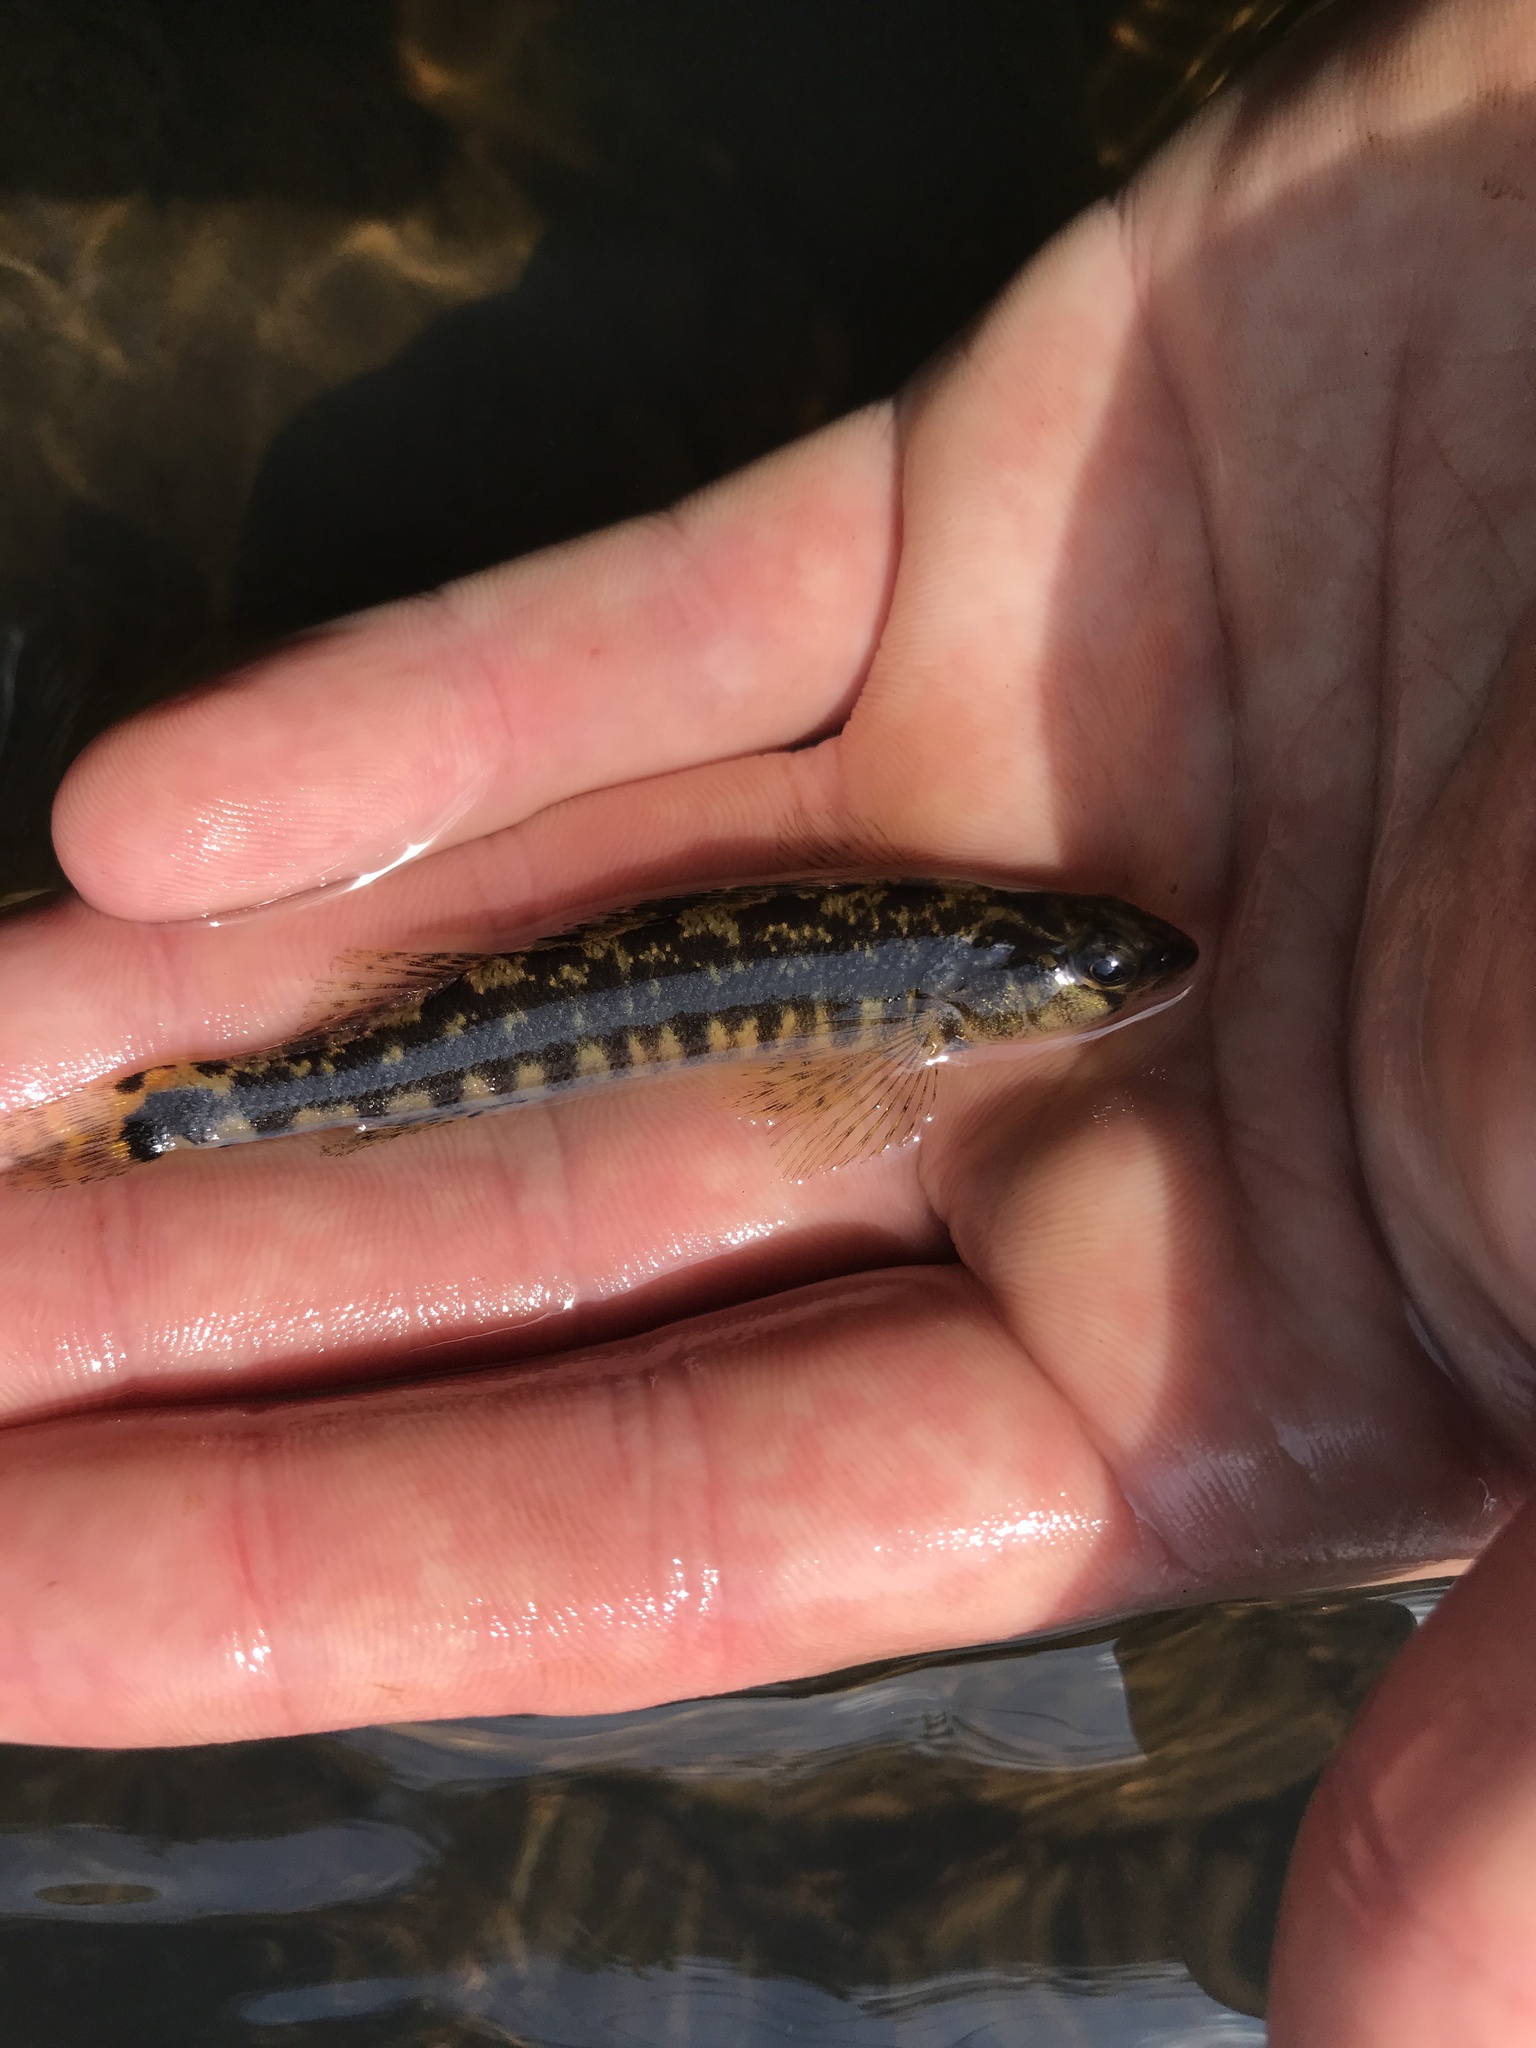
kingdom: Animalia
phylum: Chordata
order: Perciformes
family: Percidae
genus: Percina
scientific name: Percina nigrofasciata
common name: Blackbanded darter
